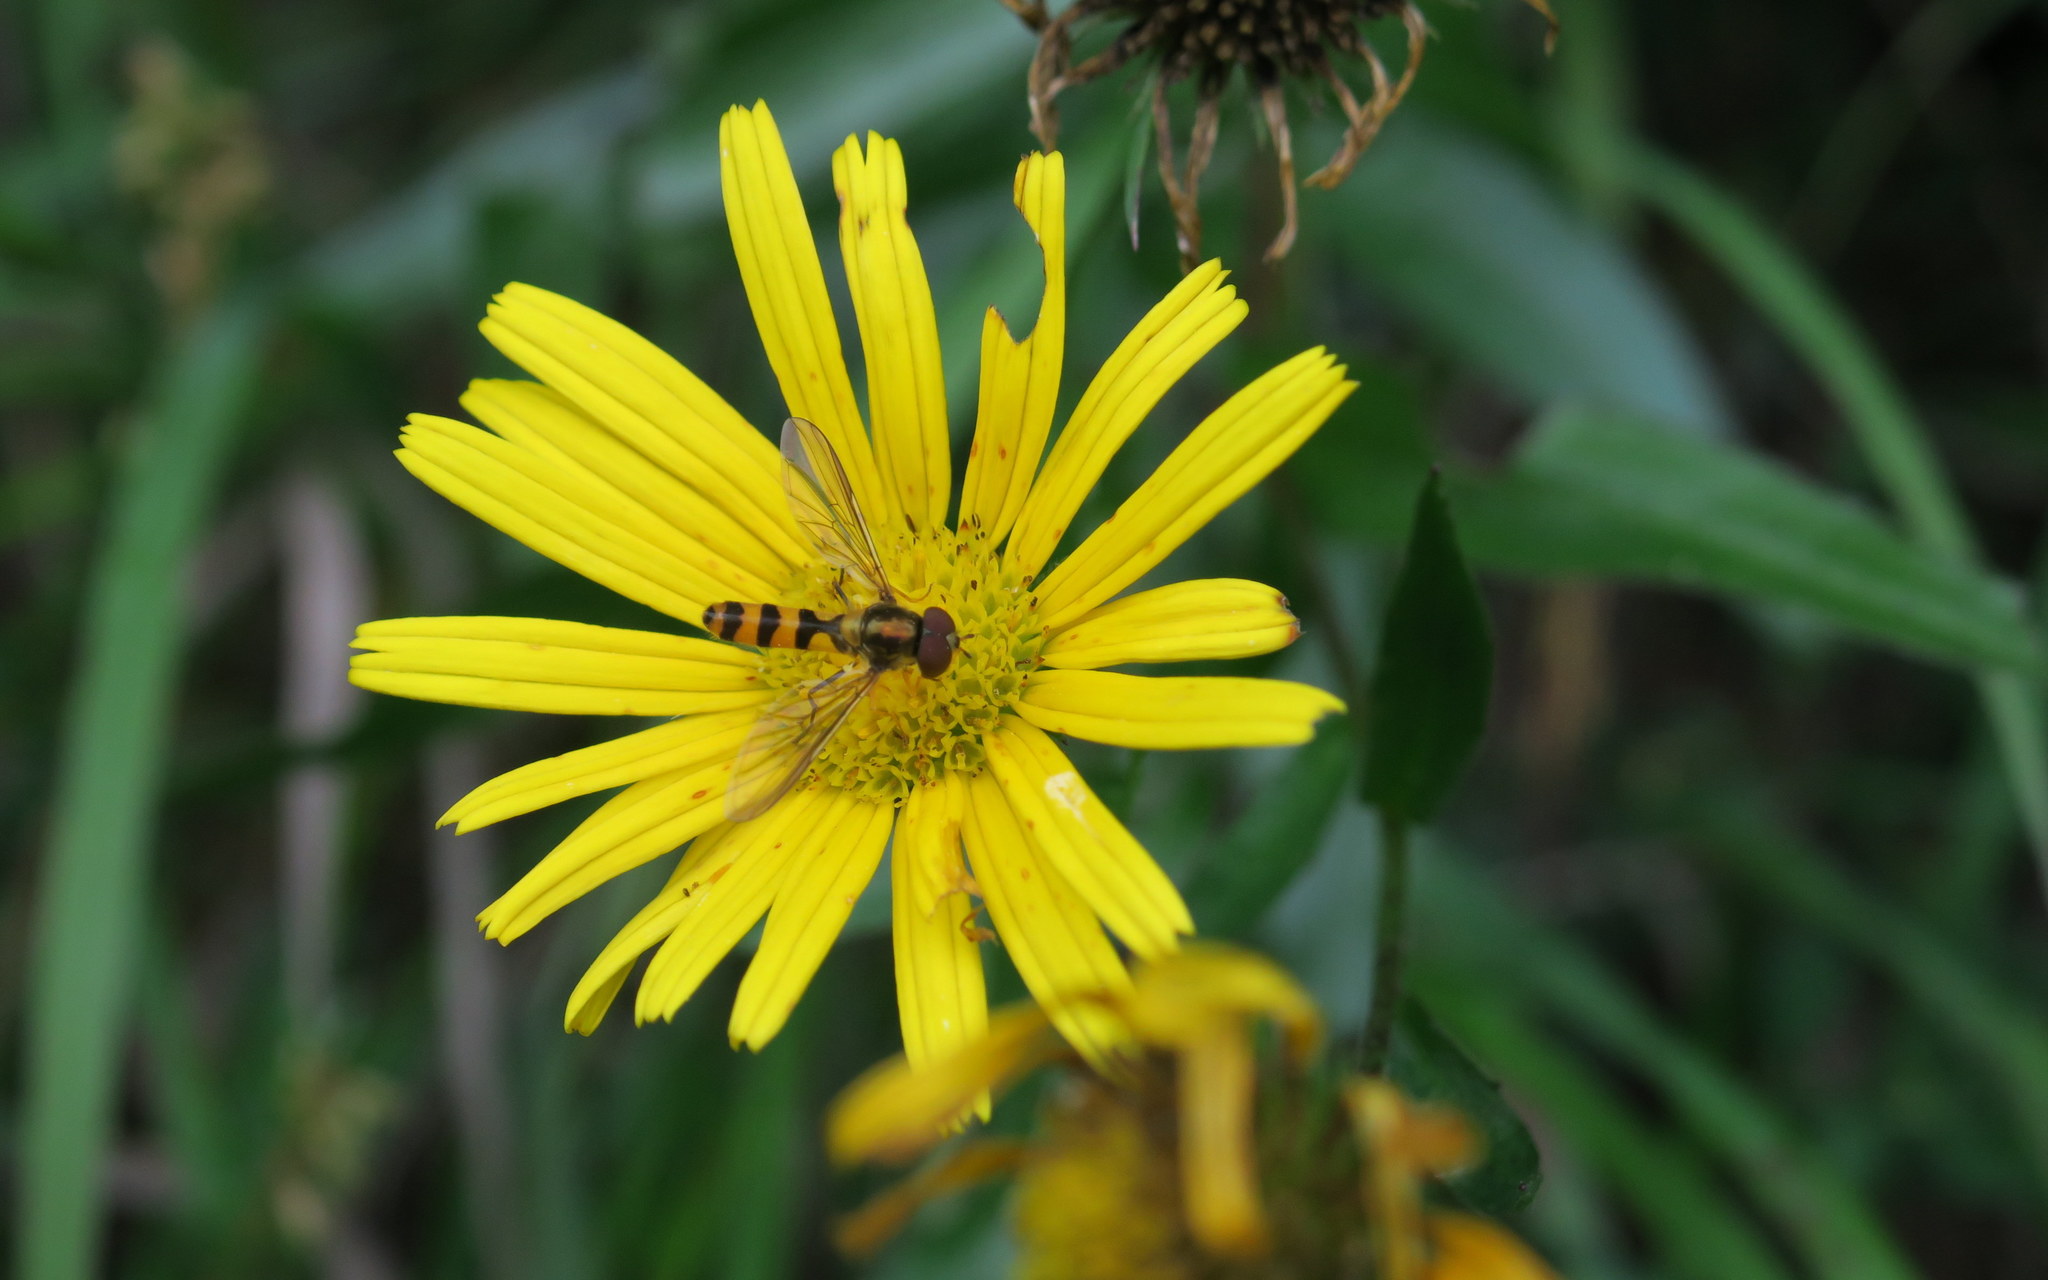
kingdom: Animalia
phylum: Arthropoda
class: Insecta
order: Diptera
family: Syrphidae
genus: Meliscaeva
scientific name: Meliscaeva cinctella
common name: American thintail fly
